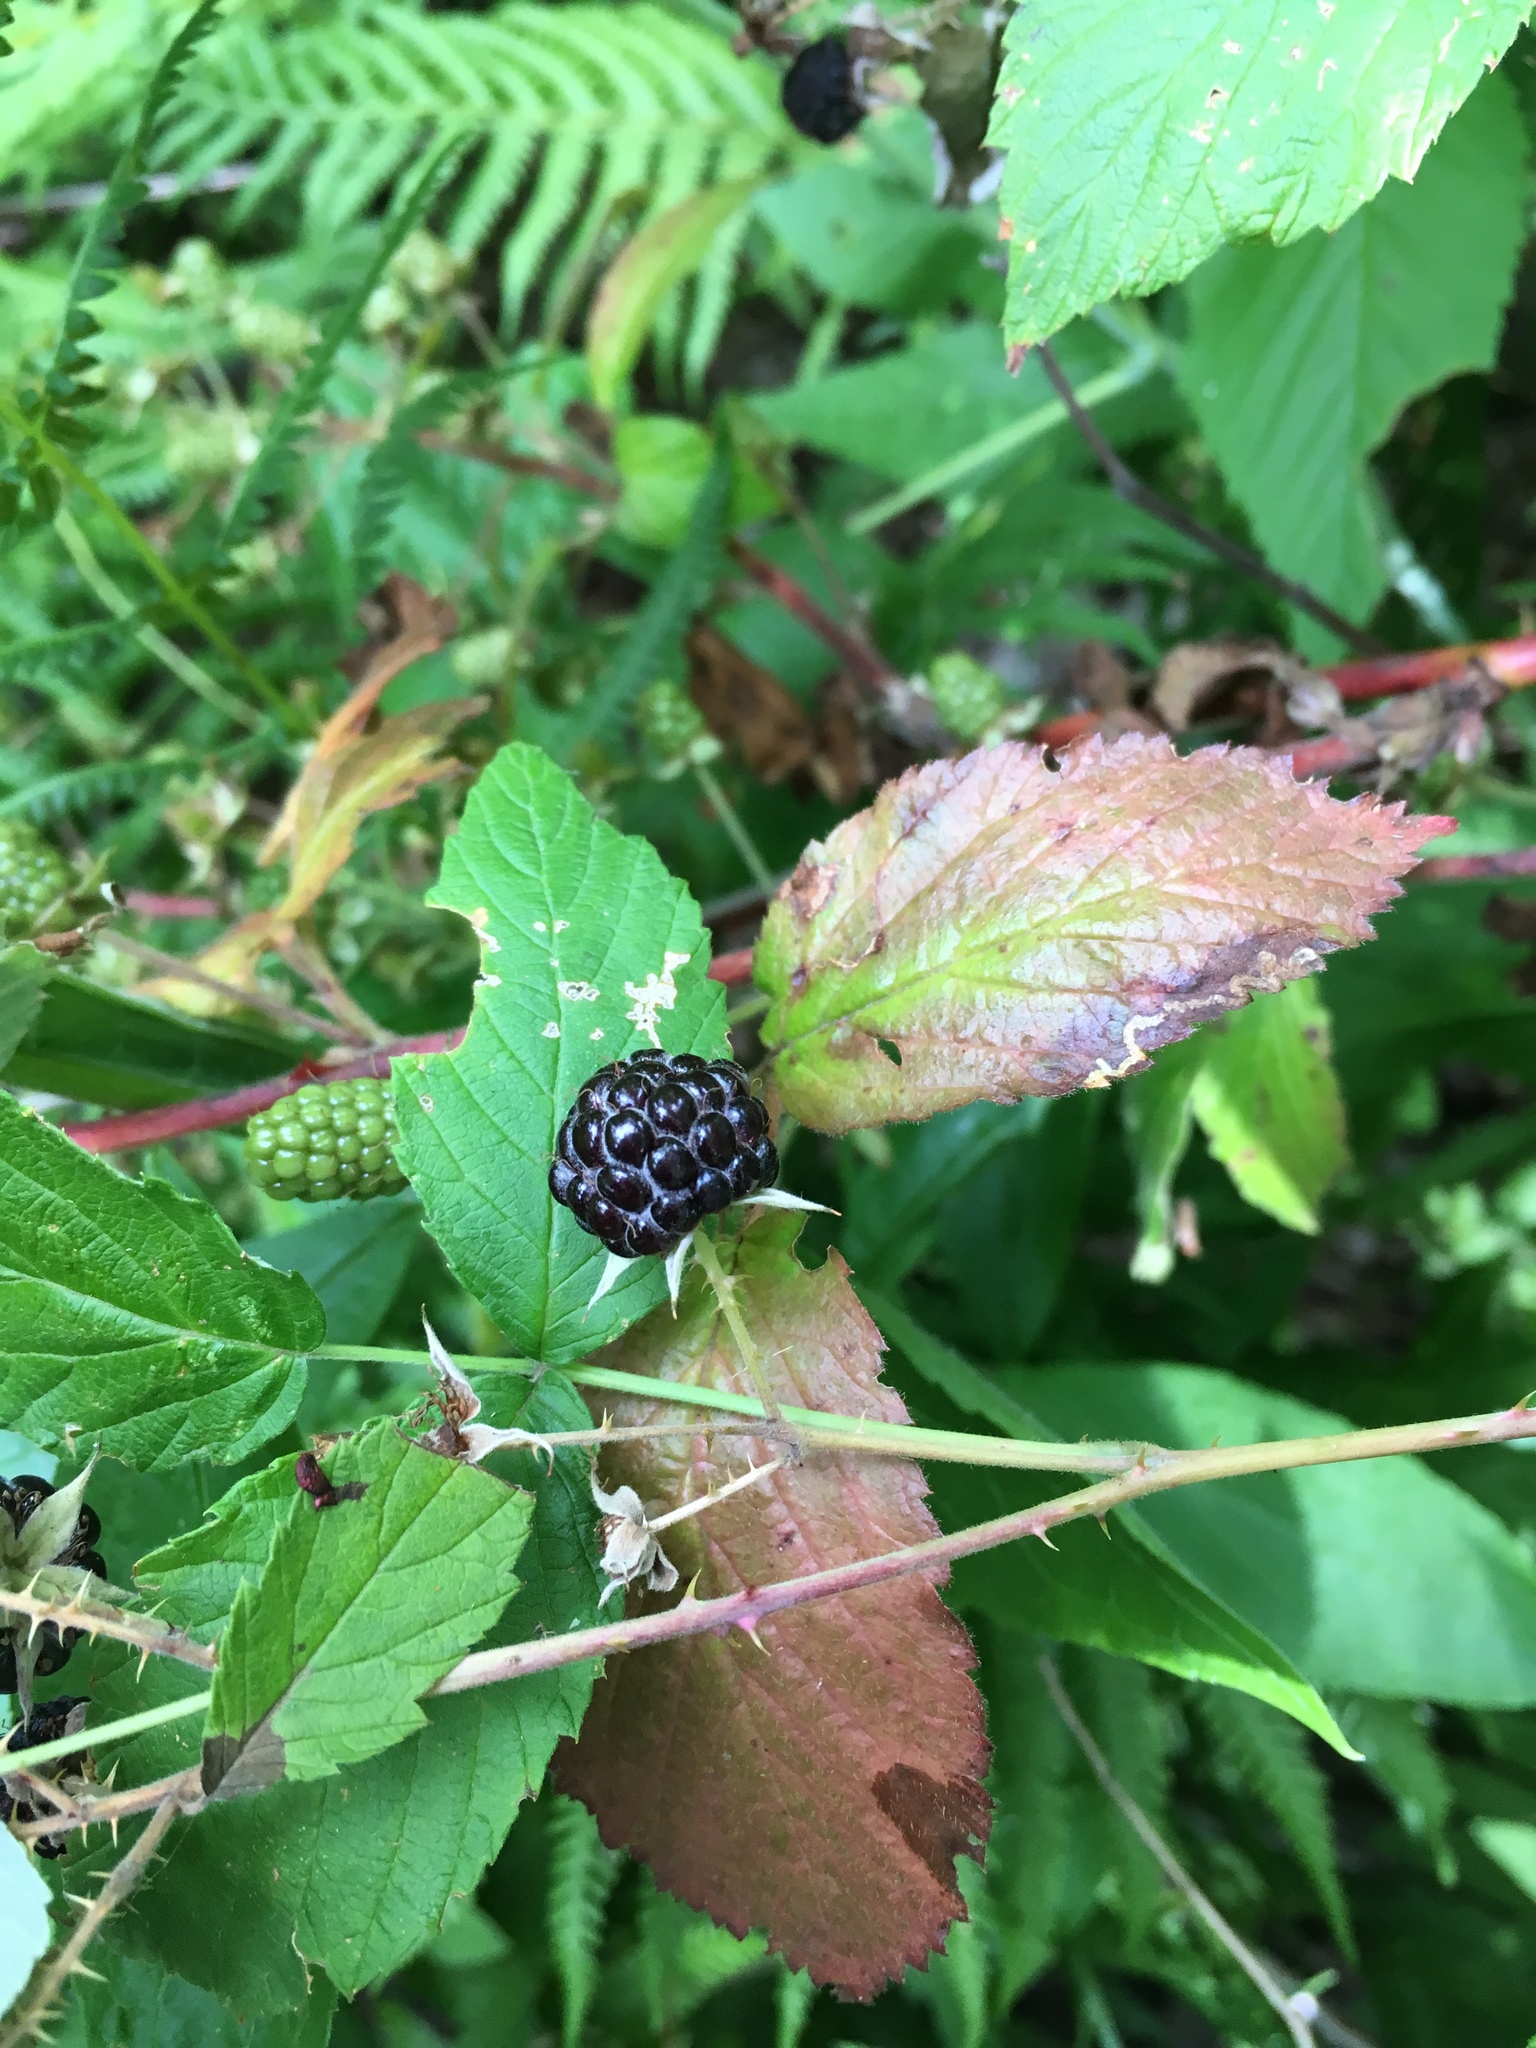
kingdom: Plantae
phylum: Tracheophyta
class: Magnoliopsida
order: Rosales
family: Rosaceae
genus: Rubus
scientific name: Rubus occidentalis
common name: Black raspberry
